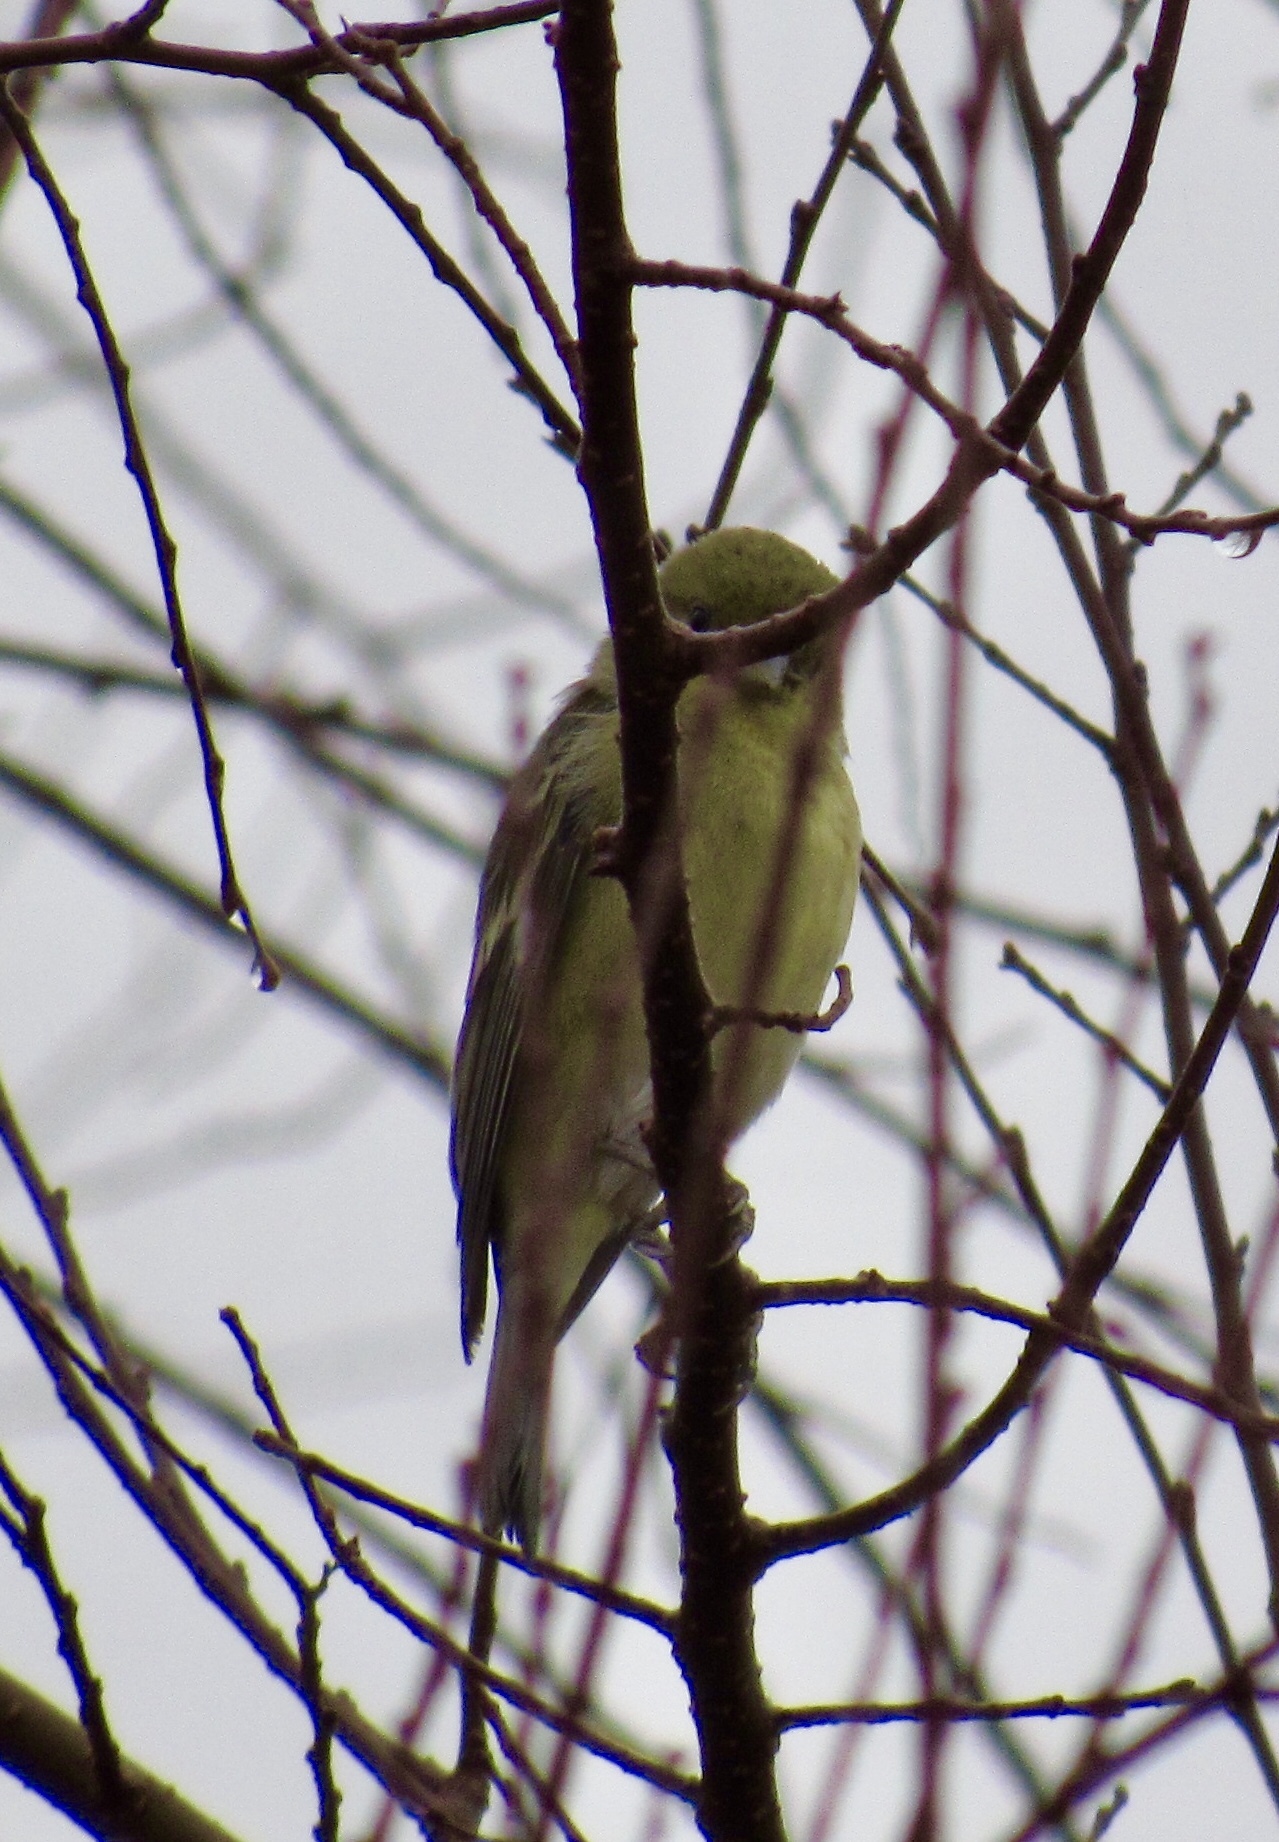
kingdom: Animalia
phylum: Chordata
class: Aves
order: Passeriformes
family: Fringillidae
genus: Spinus
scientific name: Spinus psaltria
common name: Lesser goldfinch
